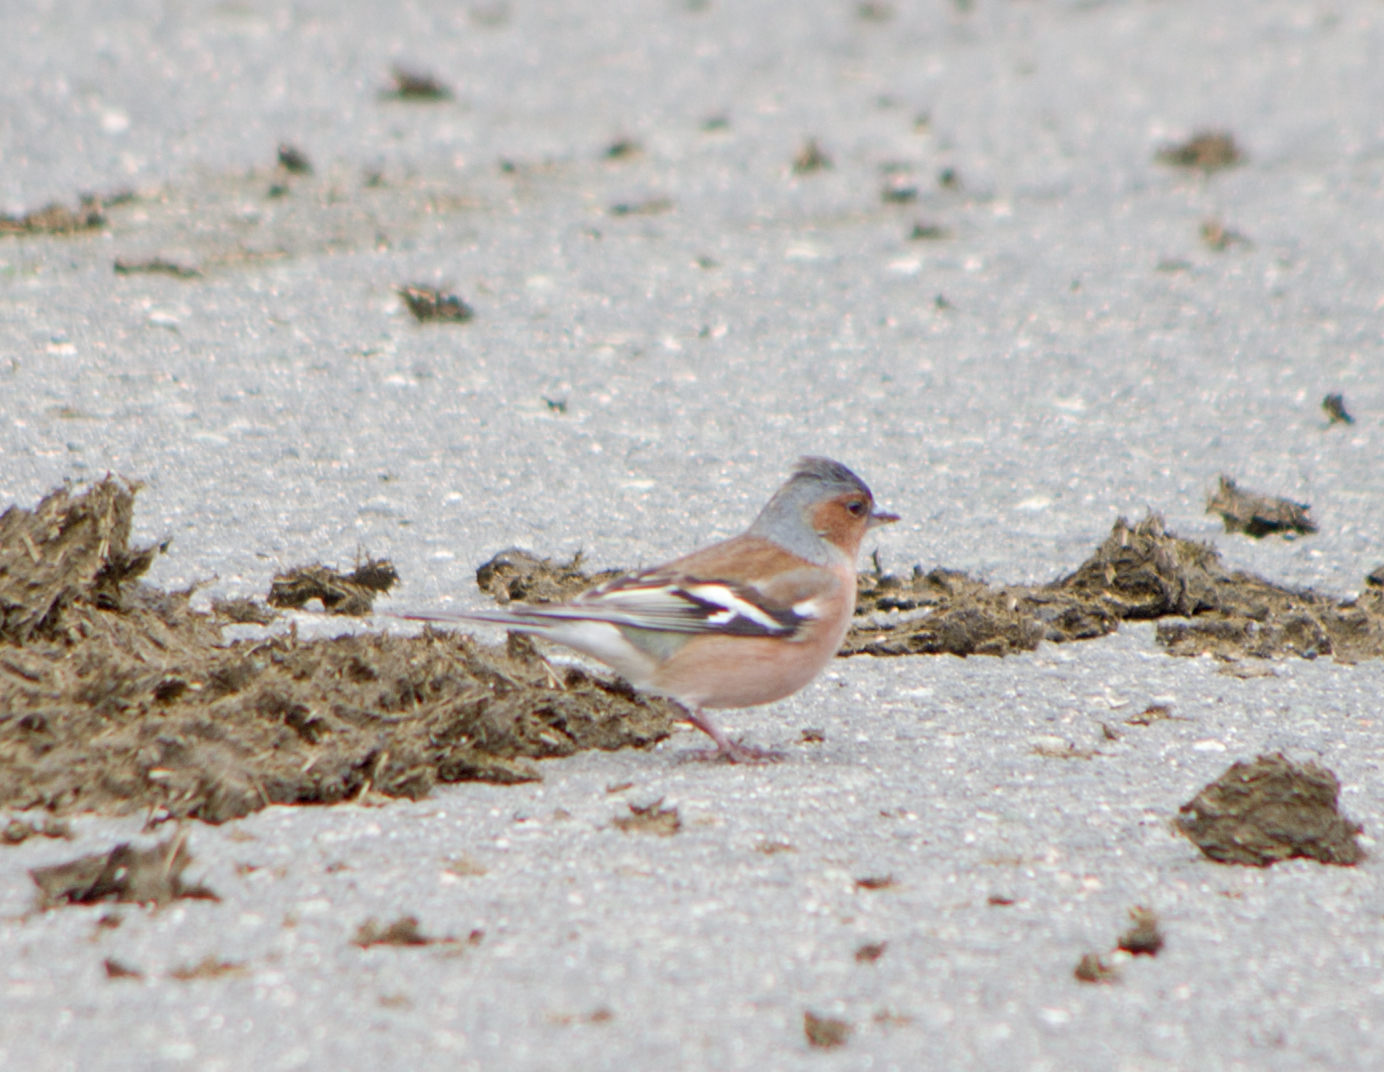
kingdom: Animalia
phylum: Chordata
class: Aves
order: Passeriformes
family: Fringillidae
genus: Fringilla
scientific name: Fringilla coelebs
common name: Common chaffinch
